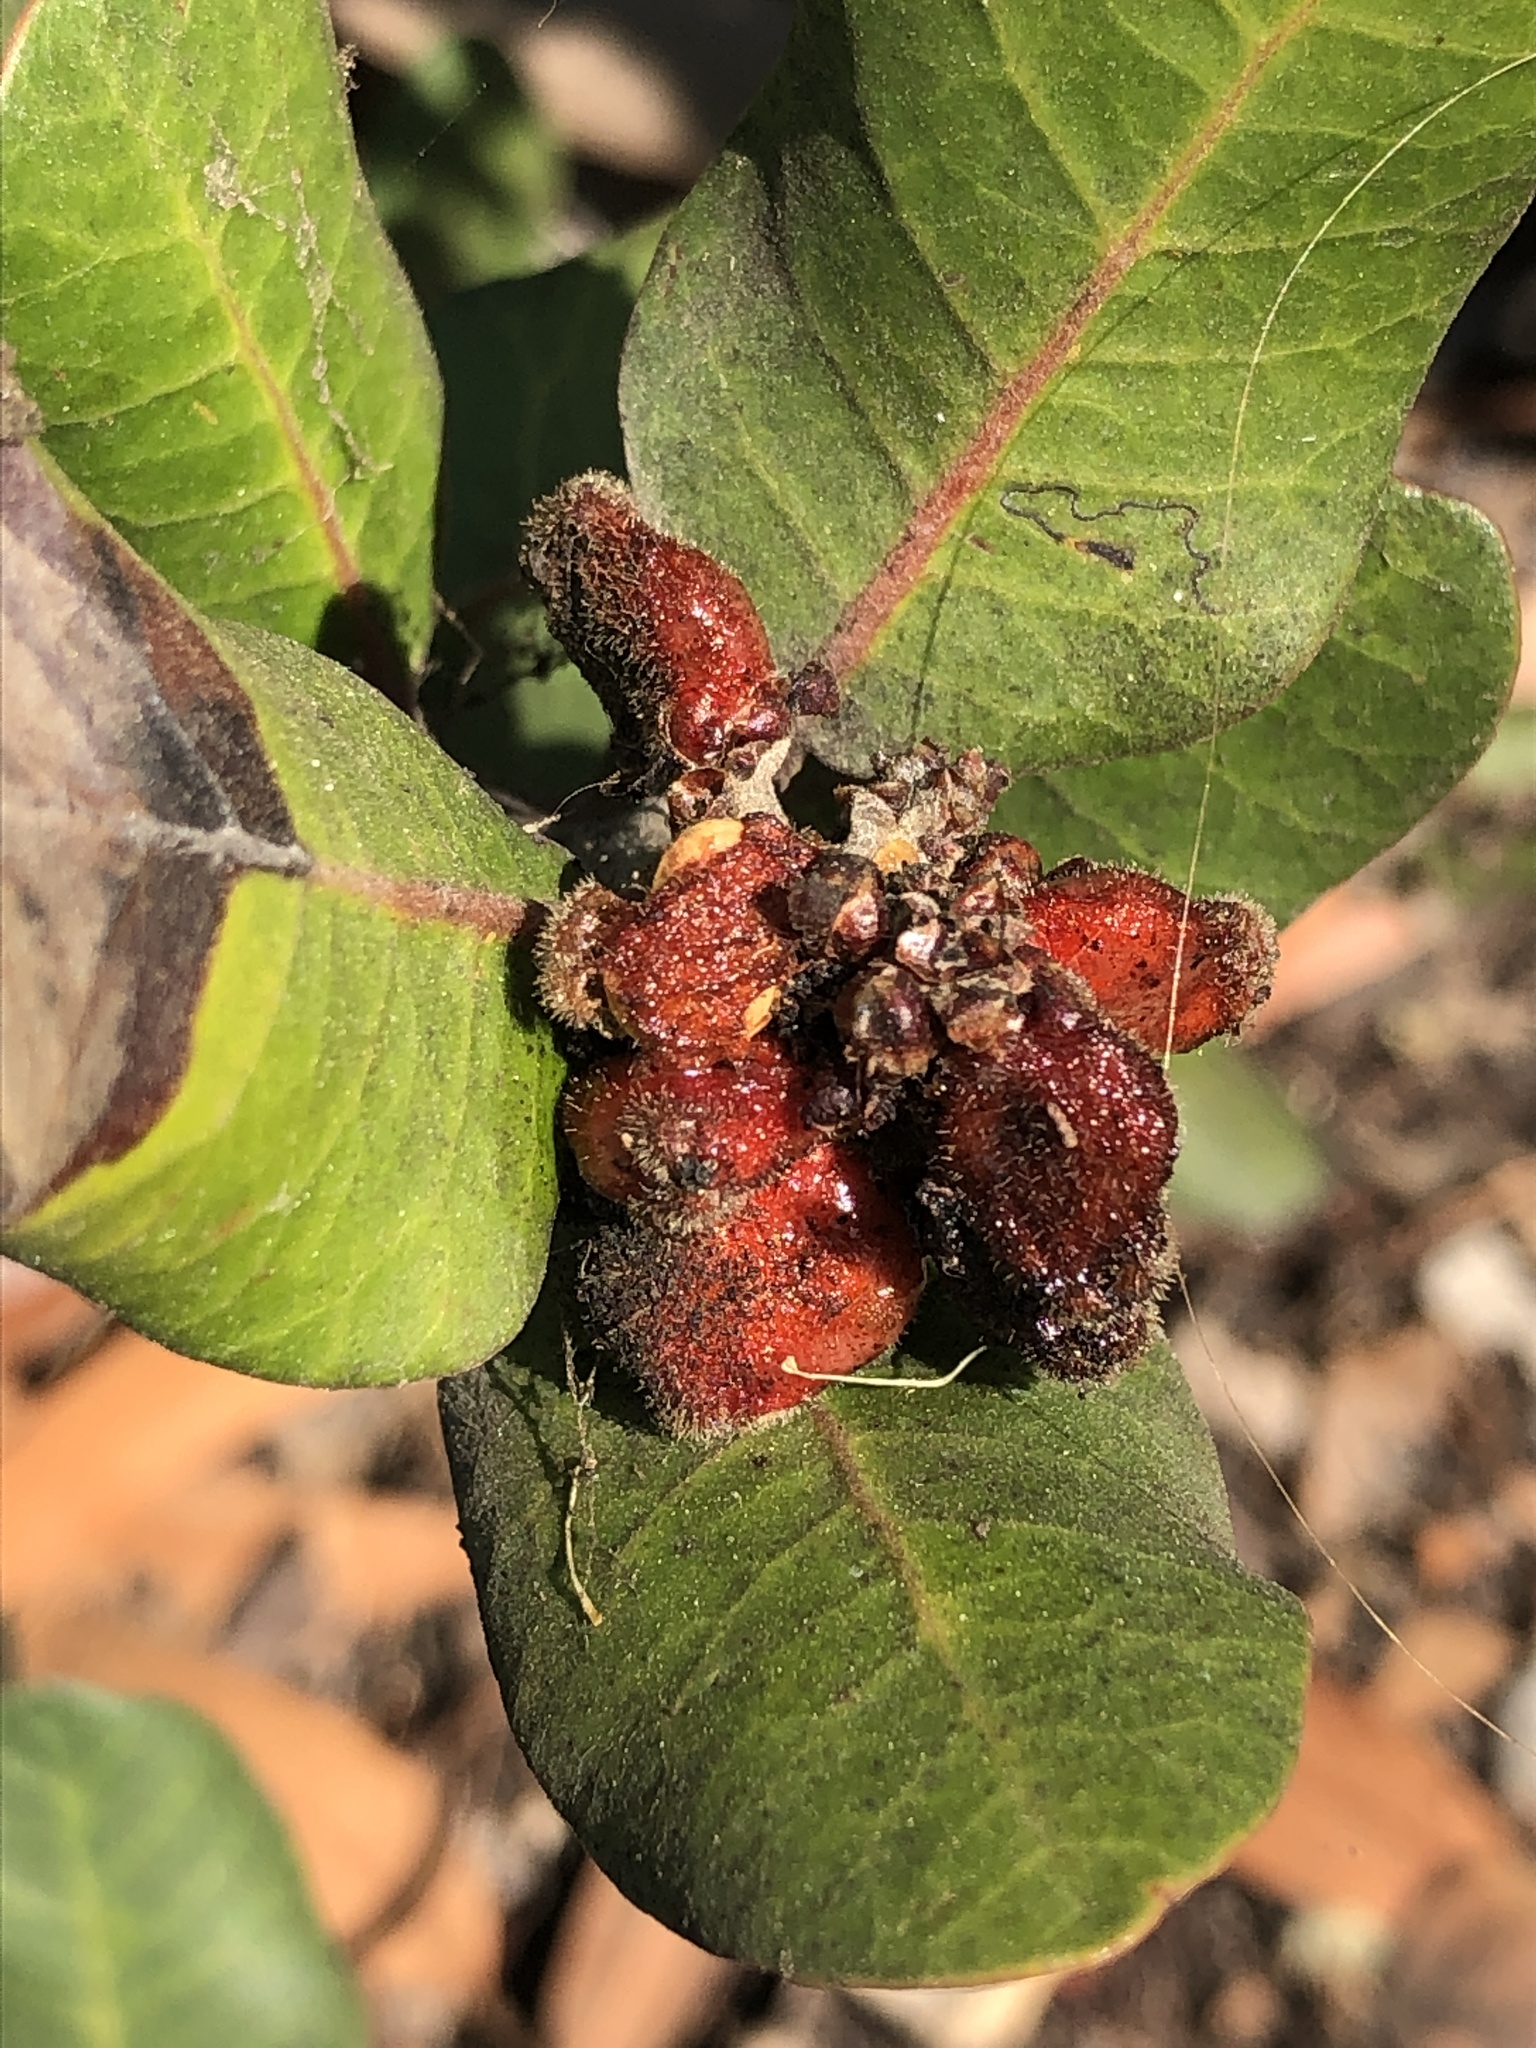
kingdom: Plantae
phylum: Tracheophyta
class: Magnoliopsida
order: Sapindales
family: Anacardiaceae
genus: Rhus
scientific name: Rhus integrifolia
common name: Lemonade sumac
